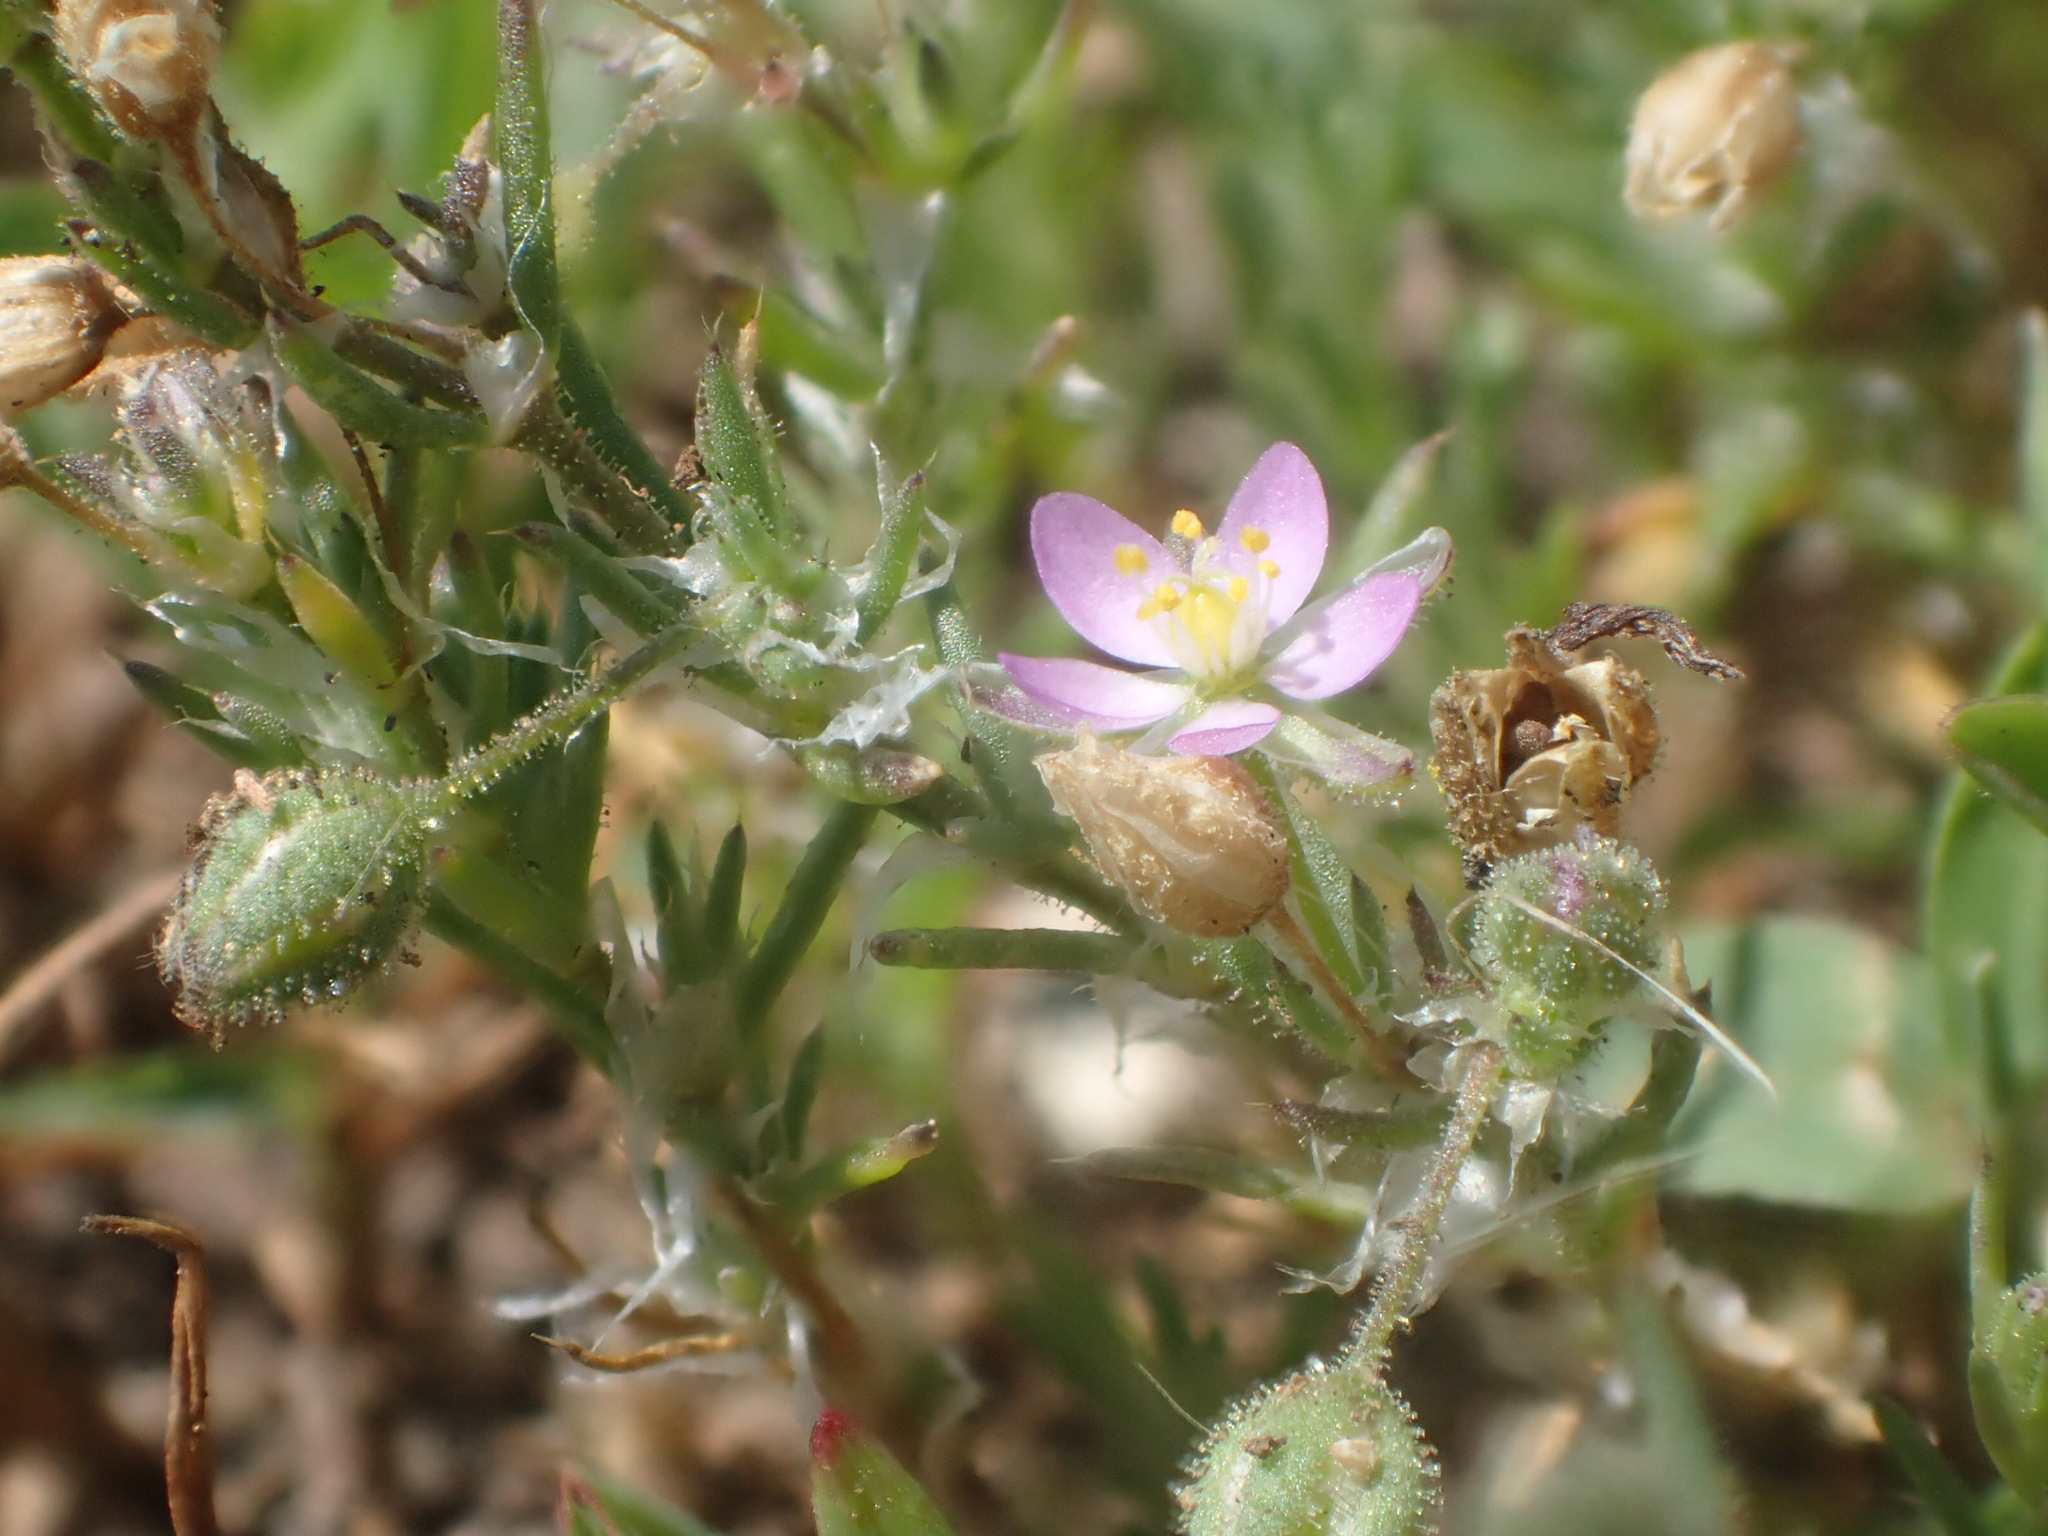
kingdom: Plantae
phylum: Tracheophyta
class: Magnoliopsida
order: Caryophyllales
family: Caryophyllaceae
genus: Spergularia
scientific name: Spergularia rubra
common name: Red sand-spurrey
